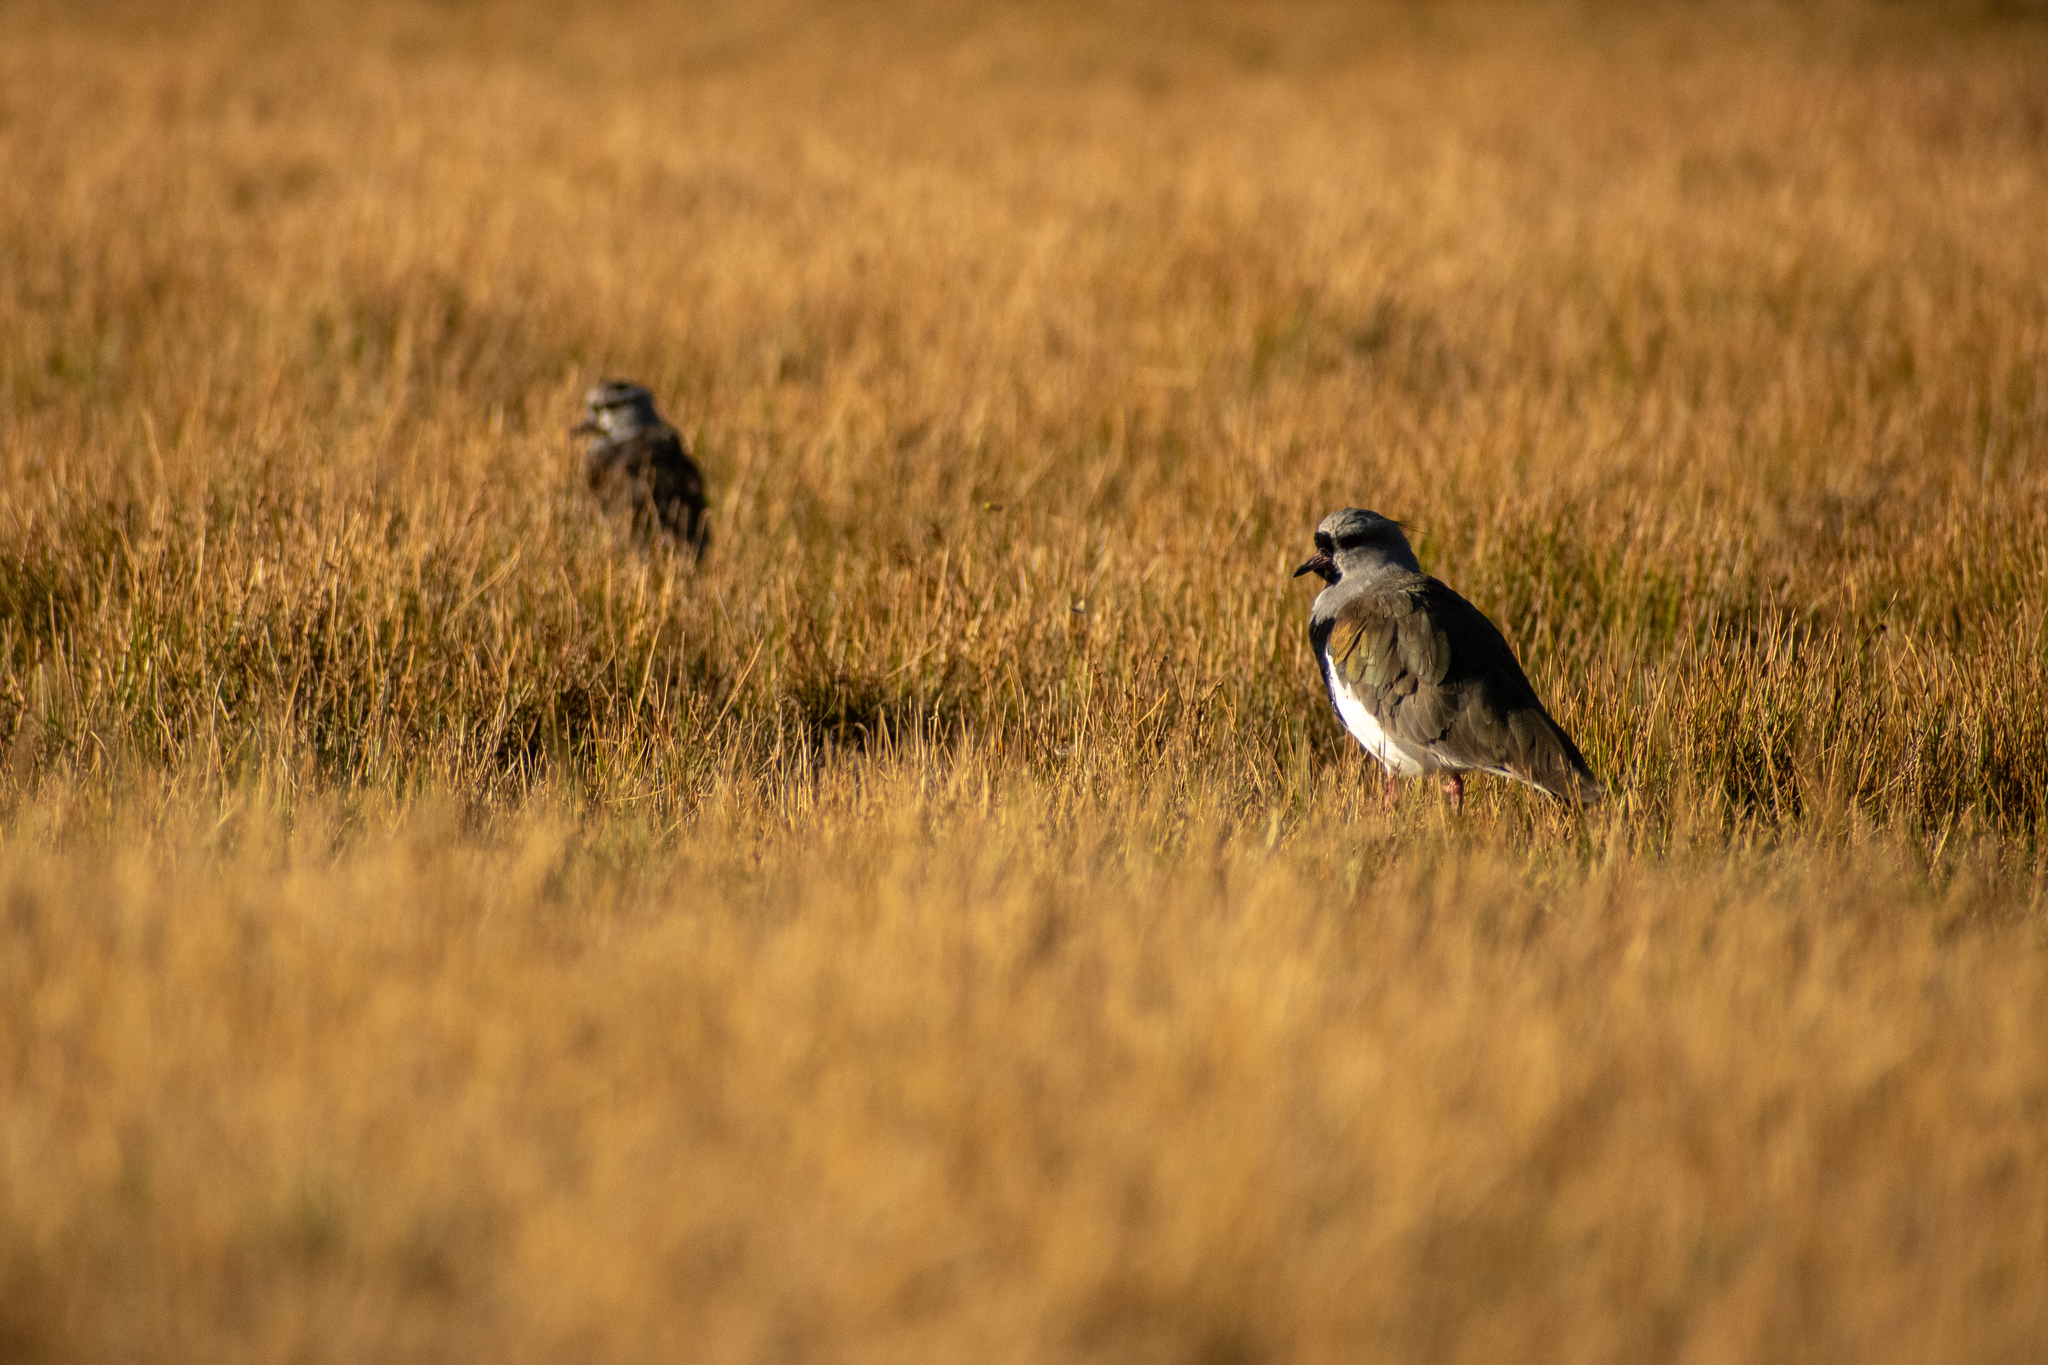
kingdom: Animalia
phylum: Chordata
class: Aves
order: Charadriiformes
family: Charadriidae
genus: Vanellus
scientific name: Vanellus chilensis
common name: Southern lapwing
